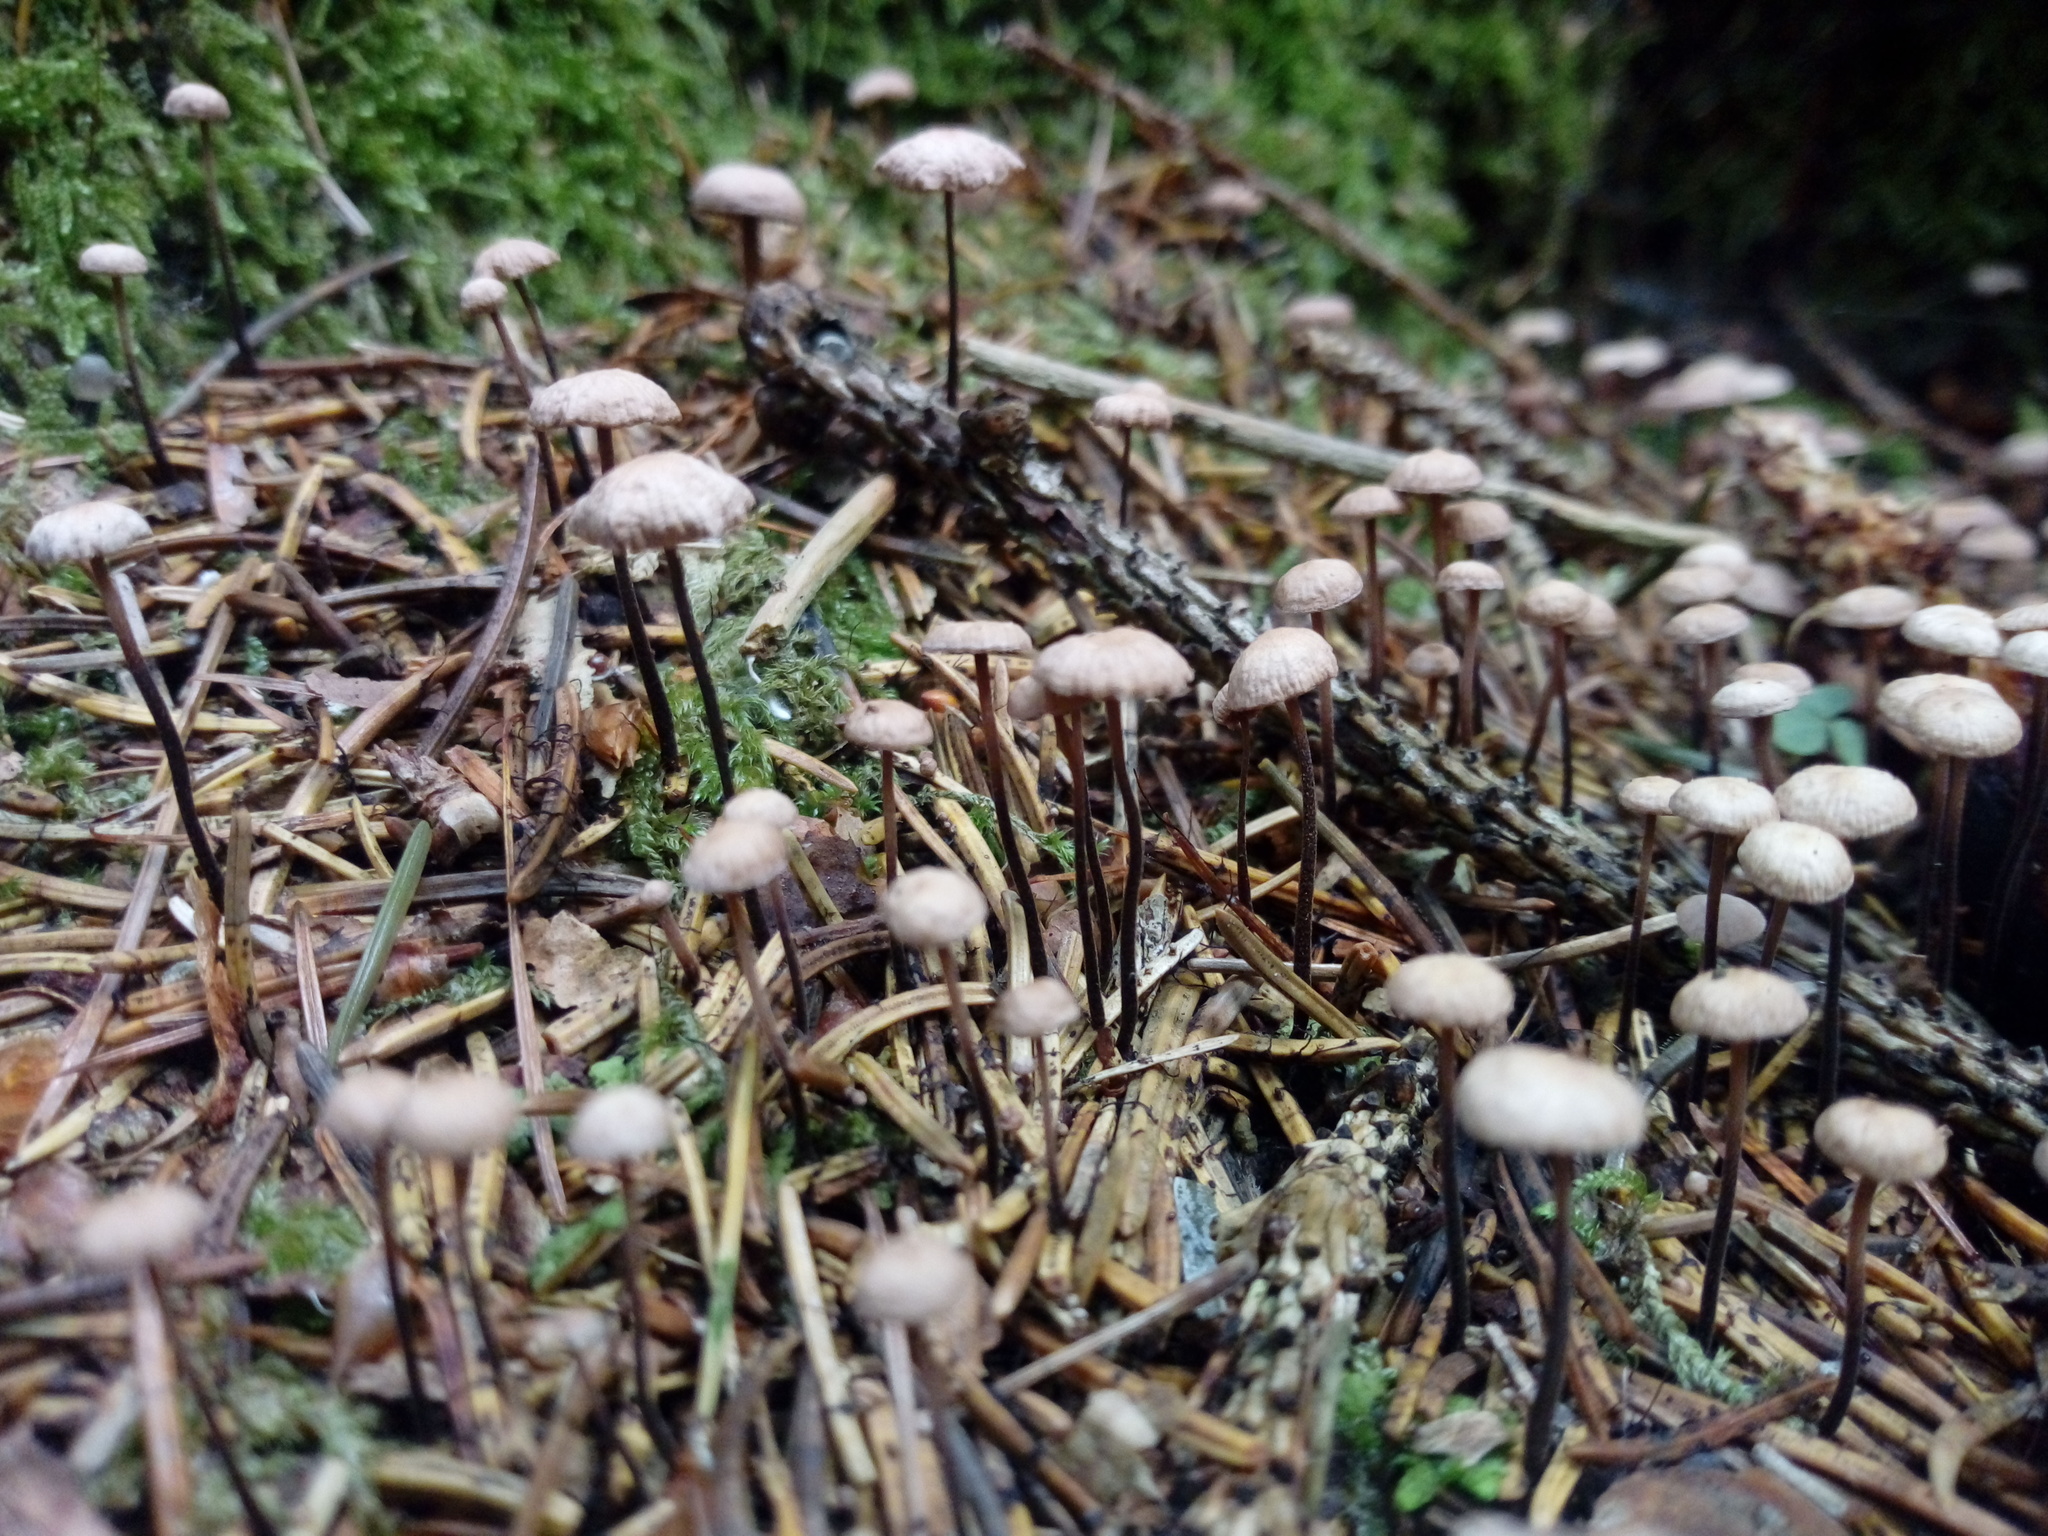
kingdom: Fungi
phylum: Basidiomycota
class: Agaricomycetes
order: Agaricales
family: Omphalotaceae
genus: Paragymnopus
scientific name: Paragymnopus perforans
